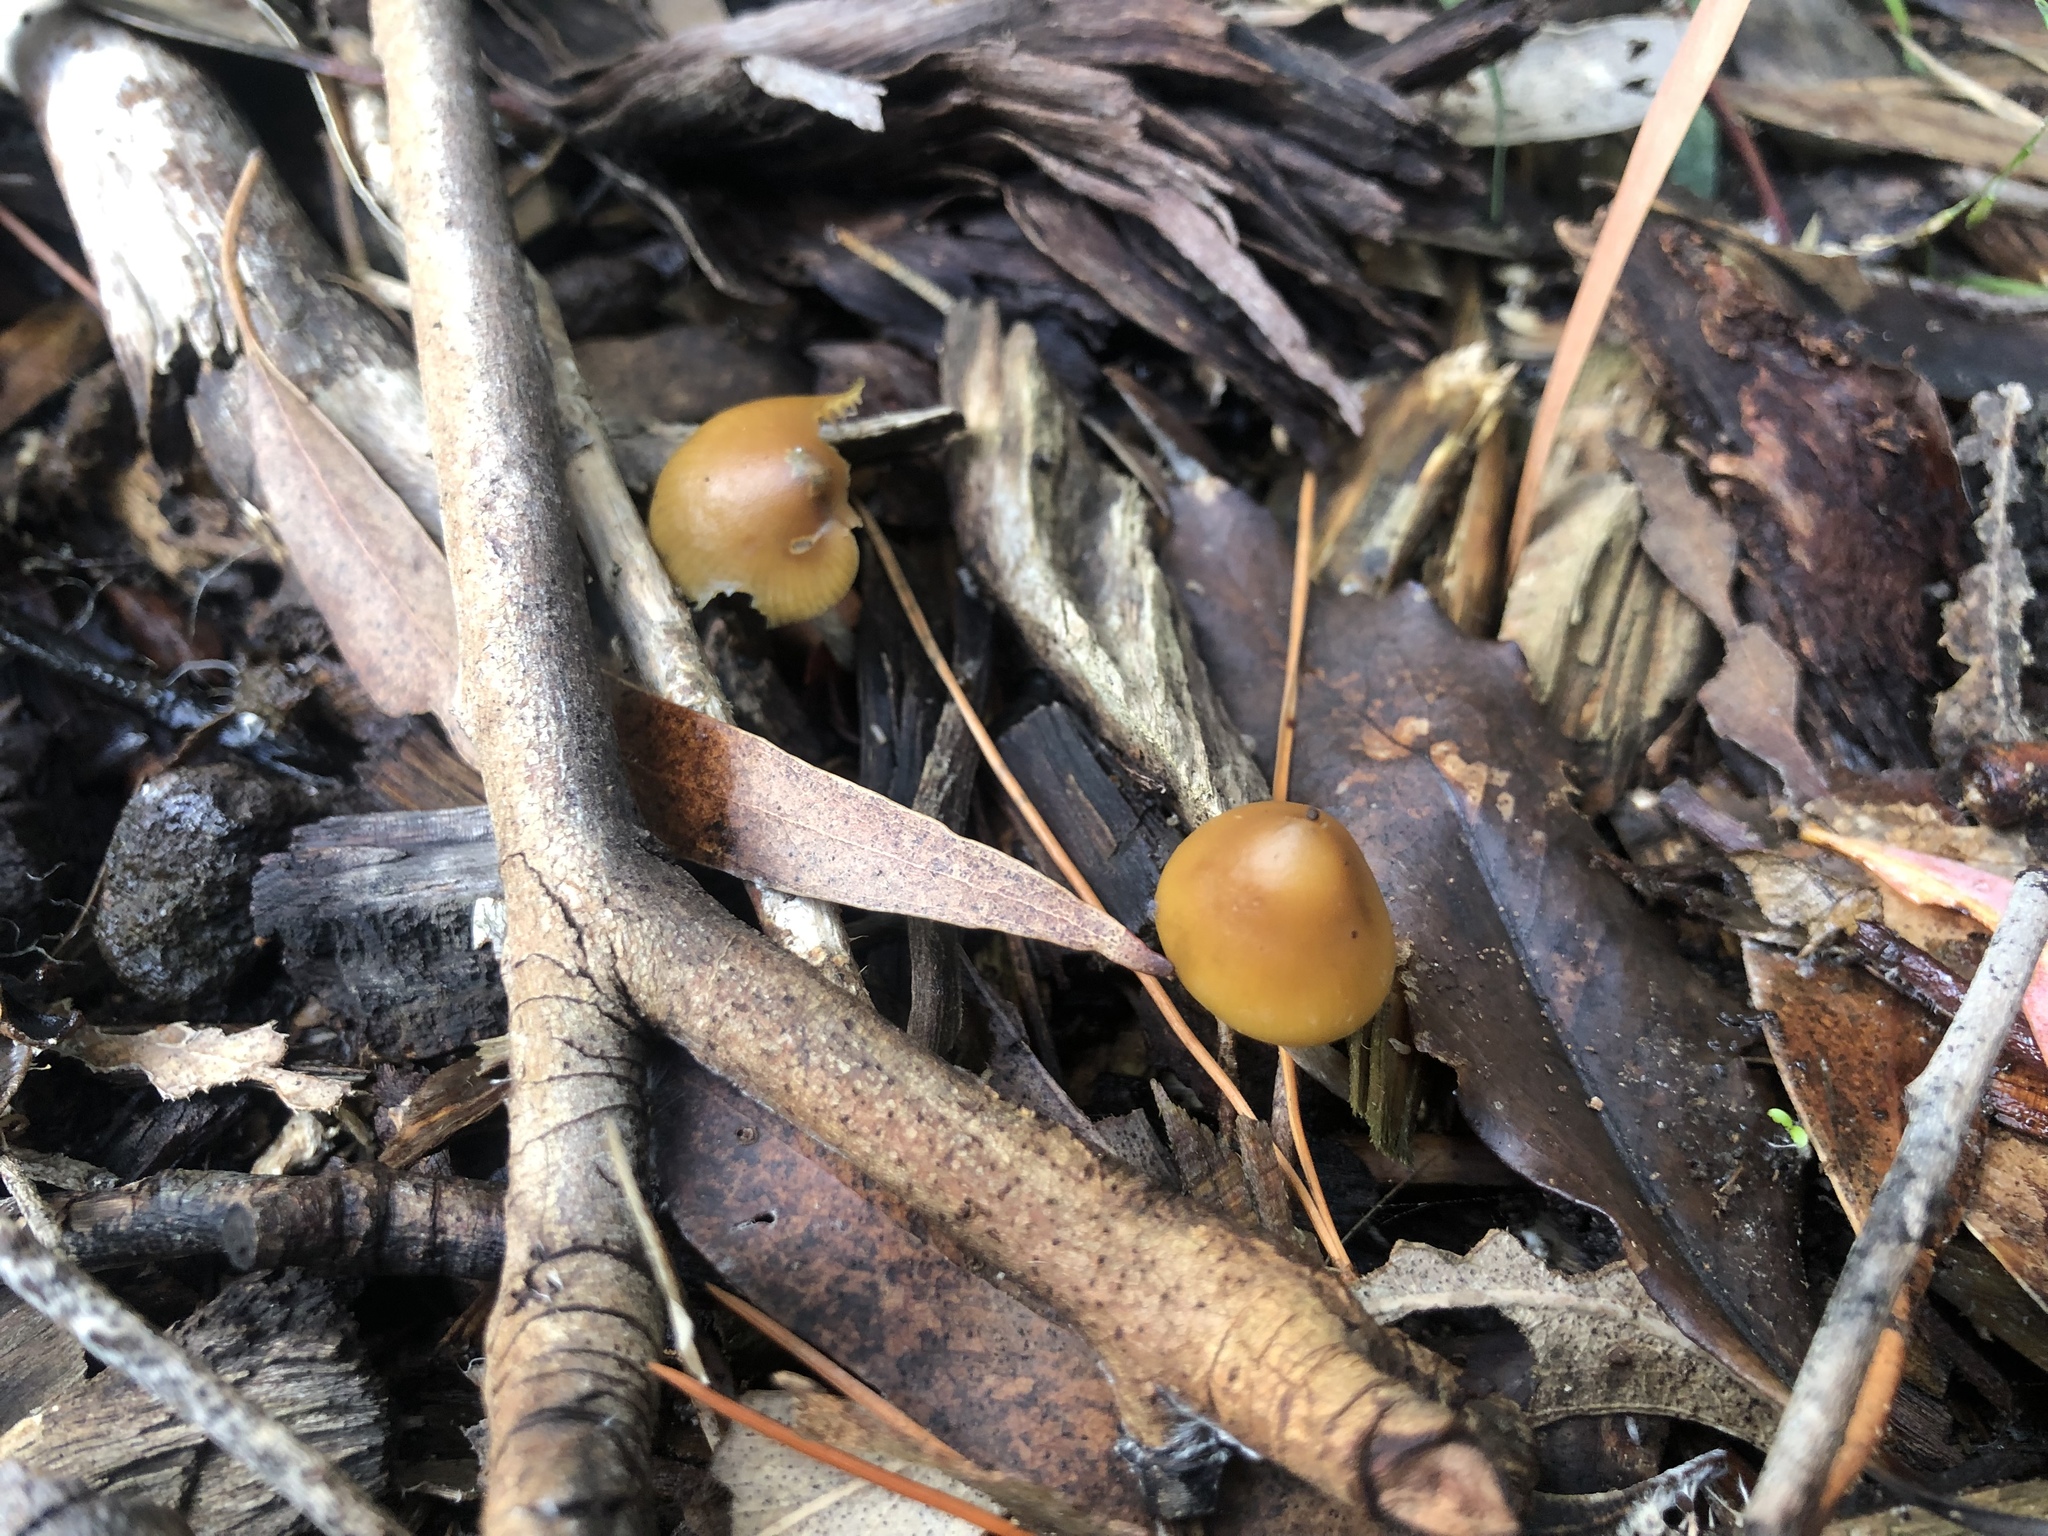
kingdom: Fungi
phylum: Basidiomycota
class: Agaricomycetes
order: Agaricales
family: Hymenogastraceae
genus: Psilocybe
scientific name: Psilocybe subaeruginosa
